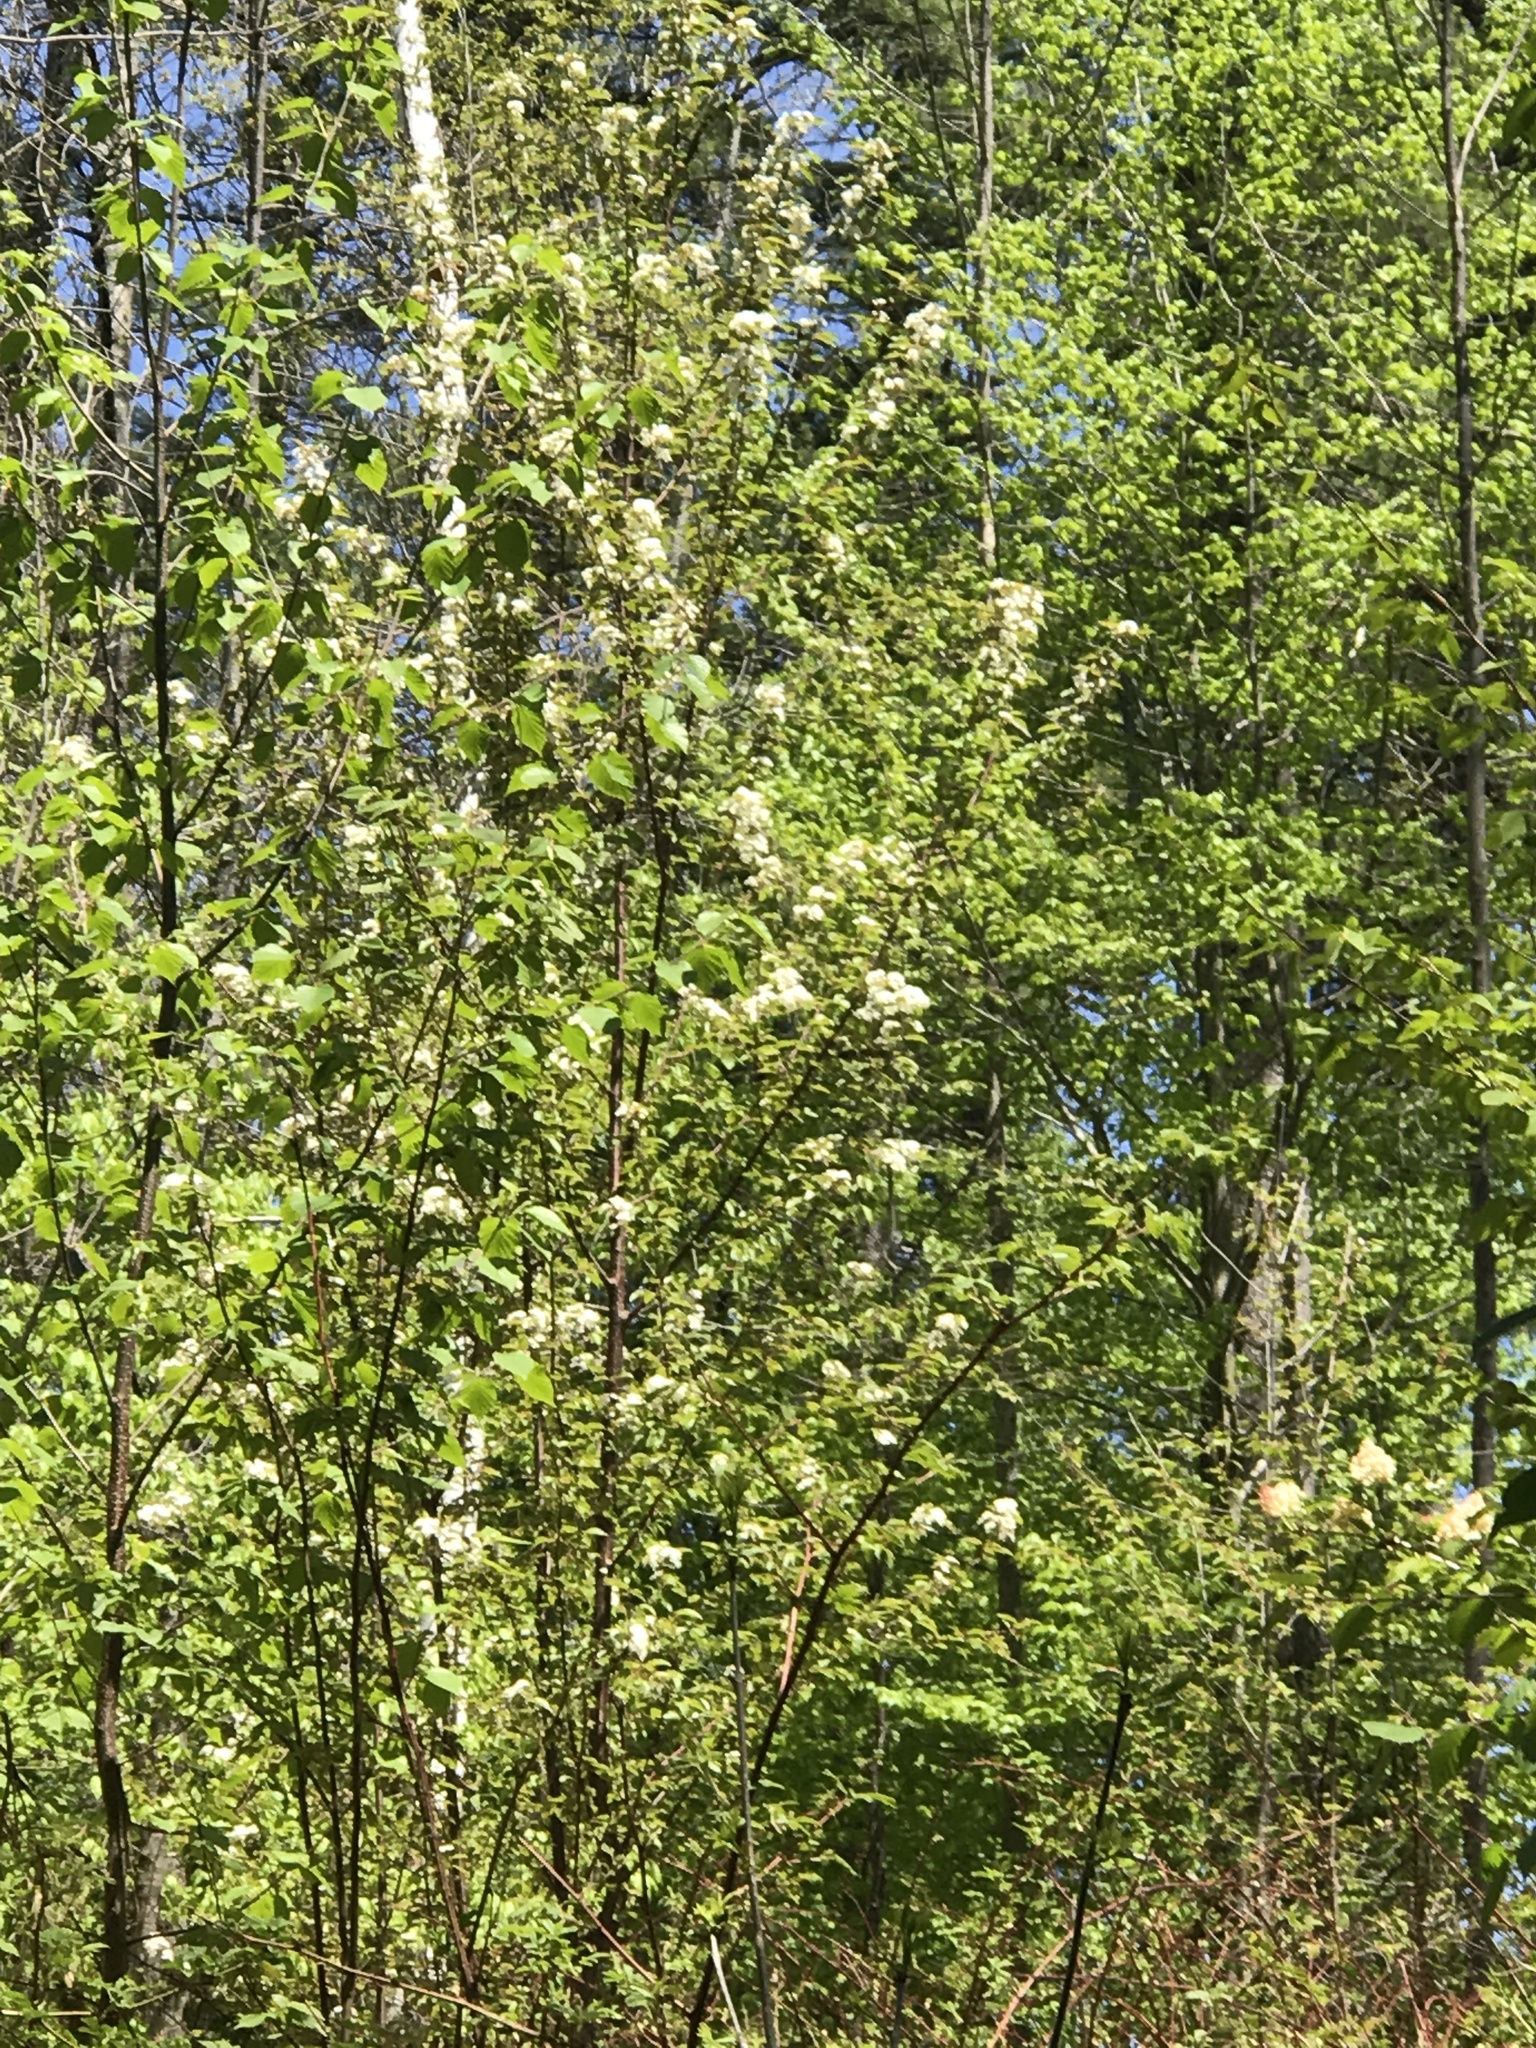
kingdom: Plantae
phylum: Tracheophyta
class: Magnoliopsida
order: Rosales
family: Rosaceae
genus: Prunus
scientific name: Prunus pensylvanica
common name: Pin cherry
